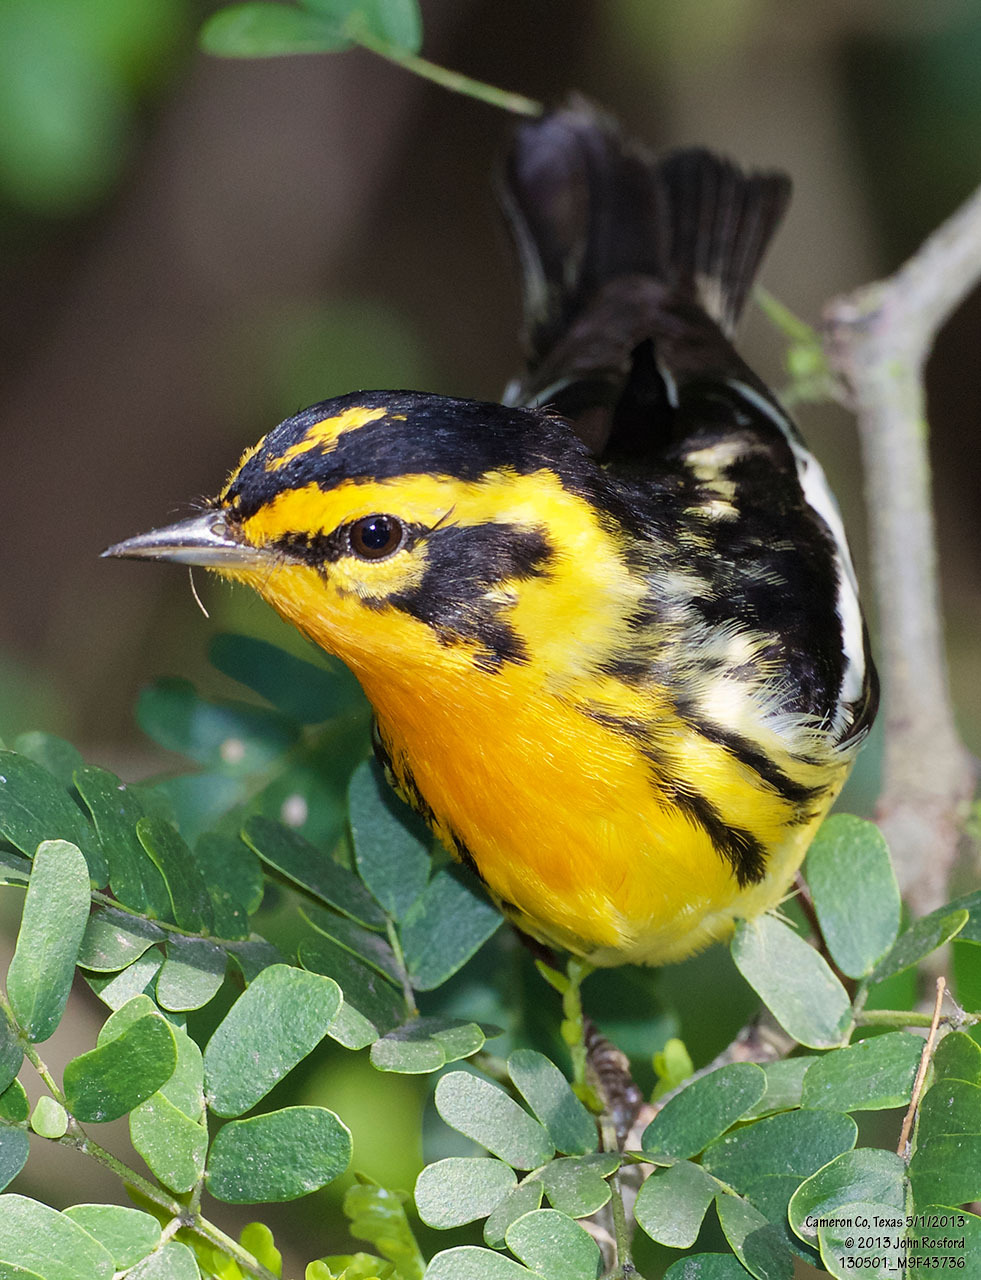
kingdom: Animalia
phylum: Chordata
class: Aves
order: Passeriformes
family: Parulidae
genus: Setophaga
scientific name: Setophaga fusca
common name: Blackburnian warbler
